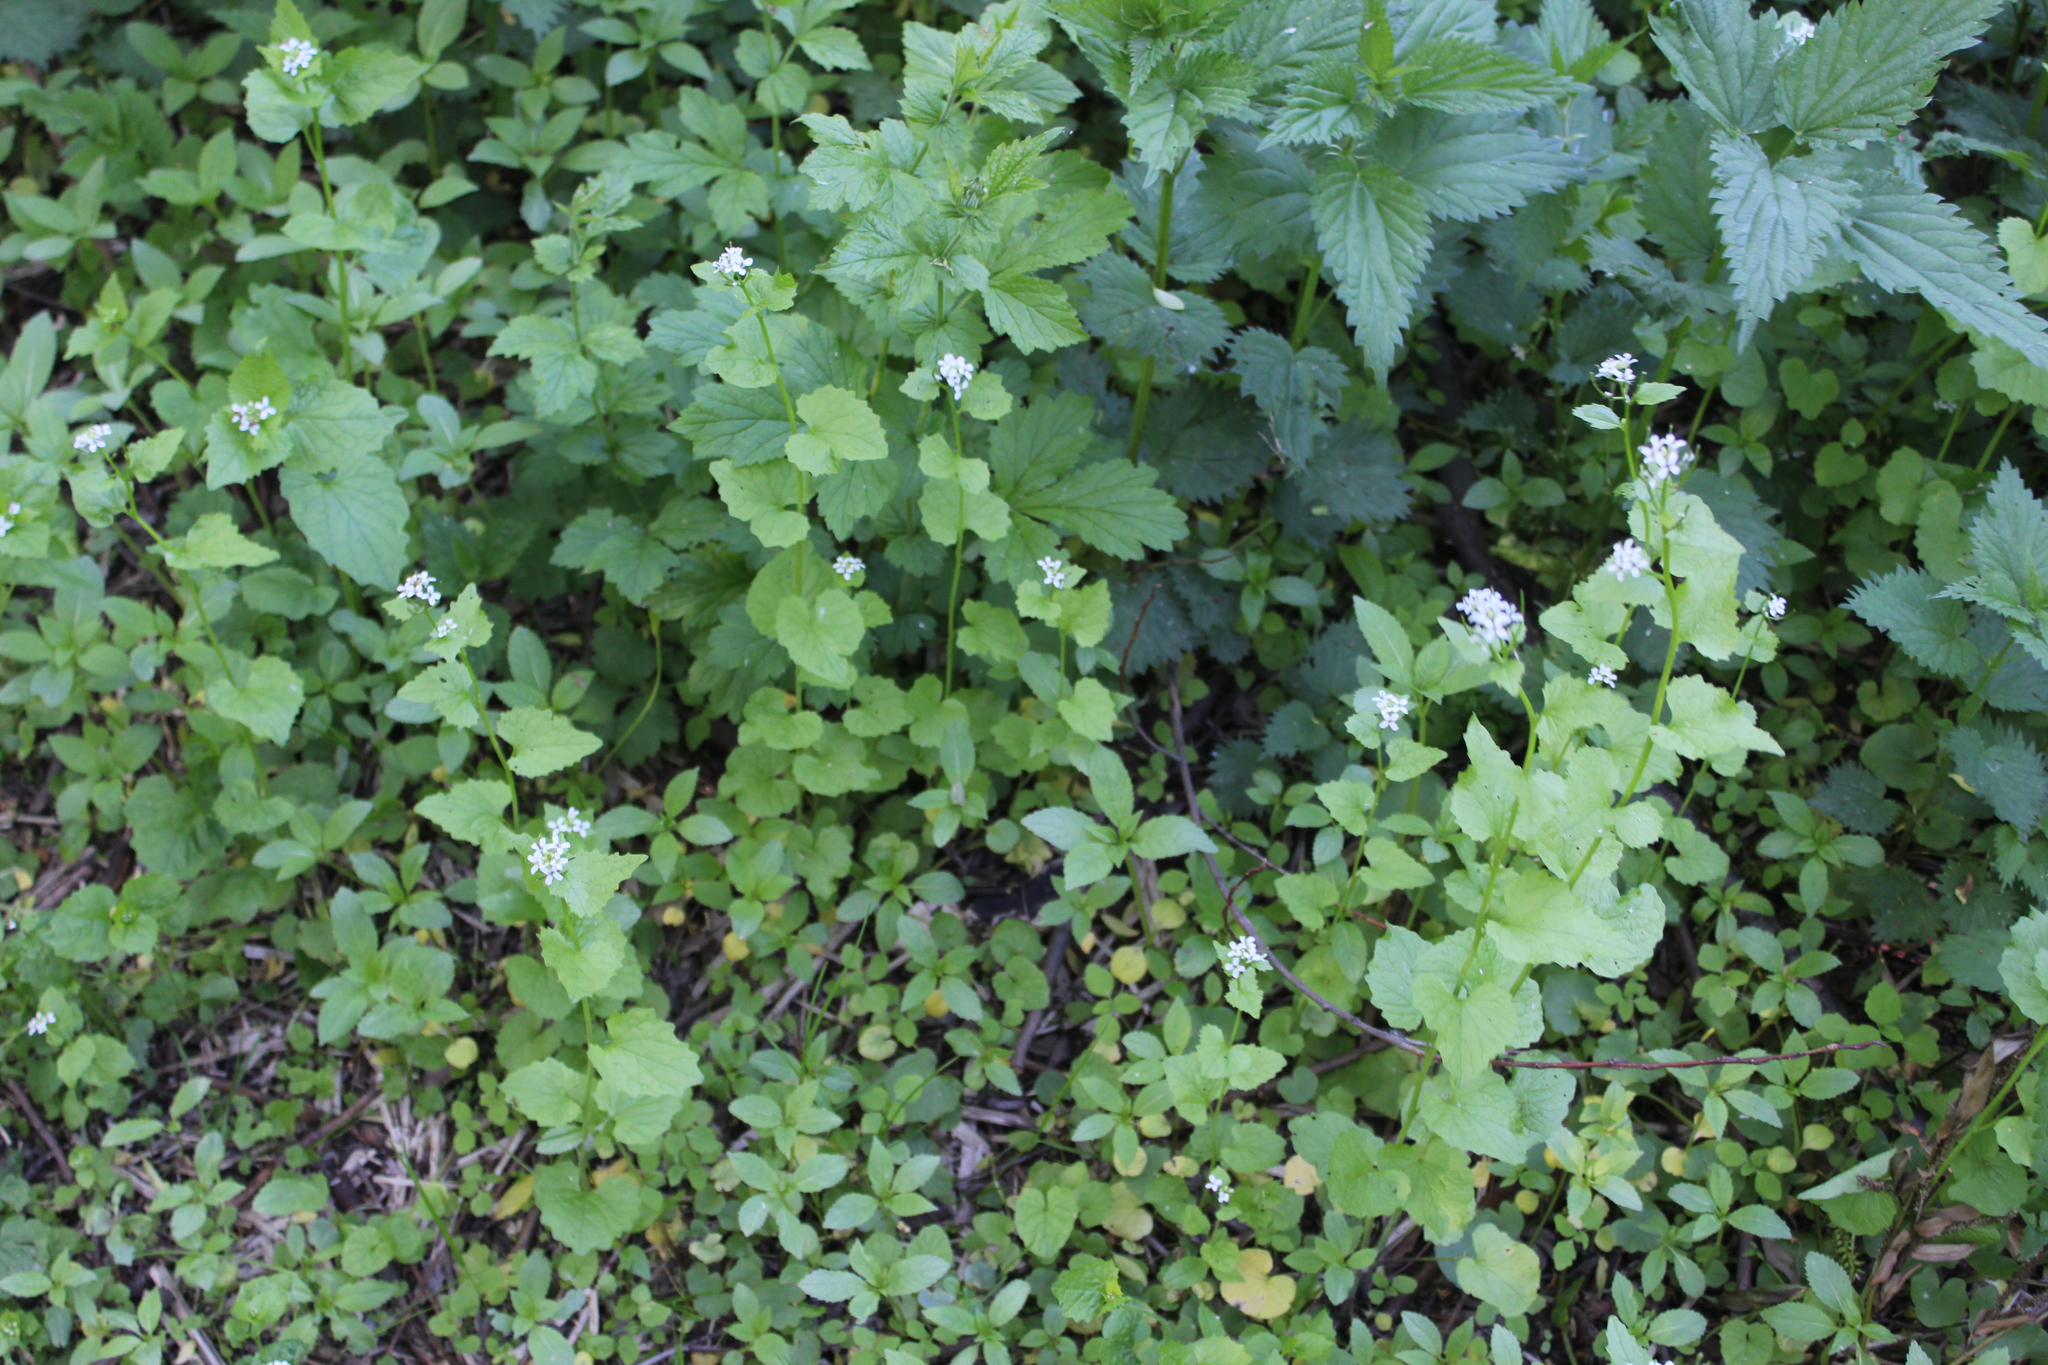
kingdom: Plantae
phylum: Tracheophyta
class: Magnoliopsida
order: Brassicales
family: Brassicaceae
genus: Alliaria
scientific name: Alliaria petiolata
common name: Garlic mustard
